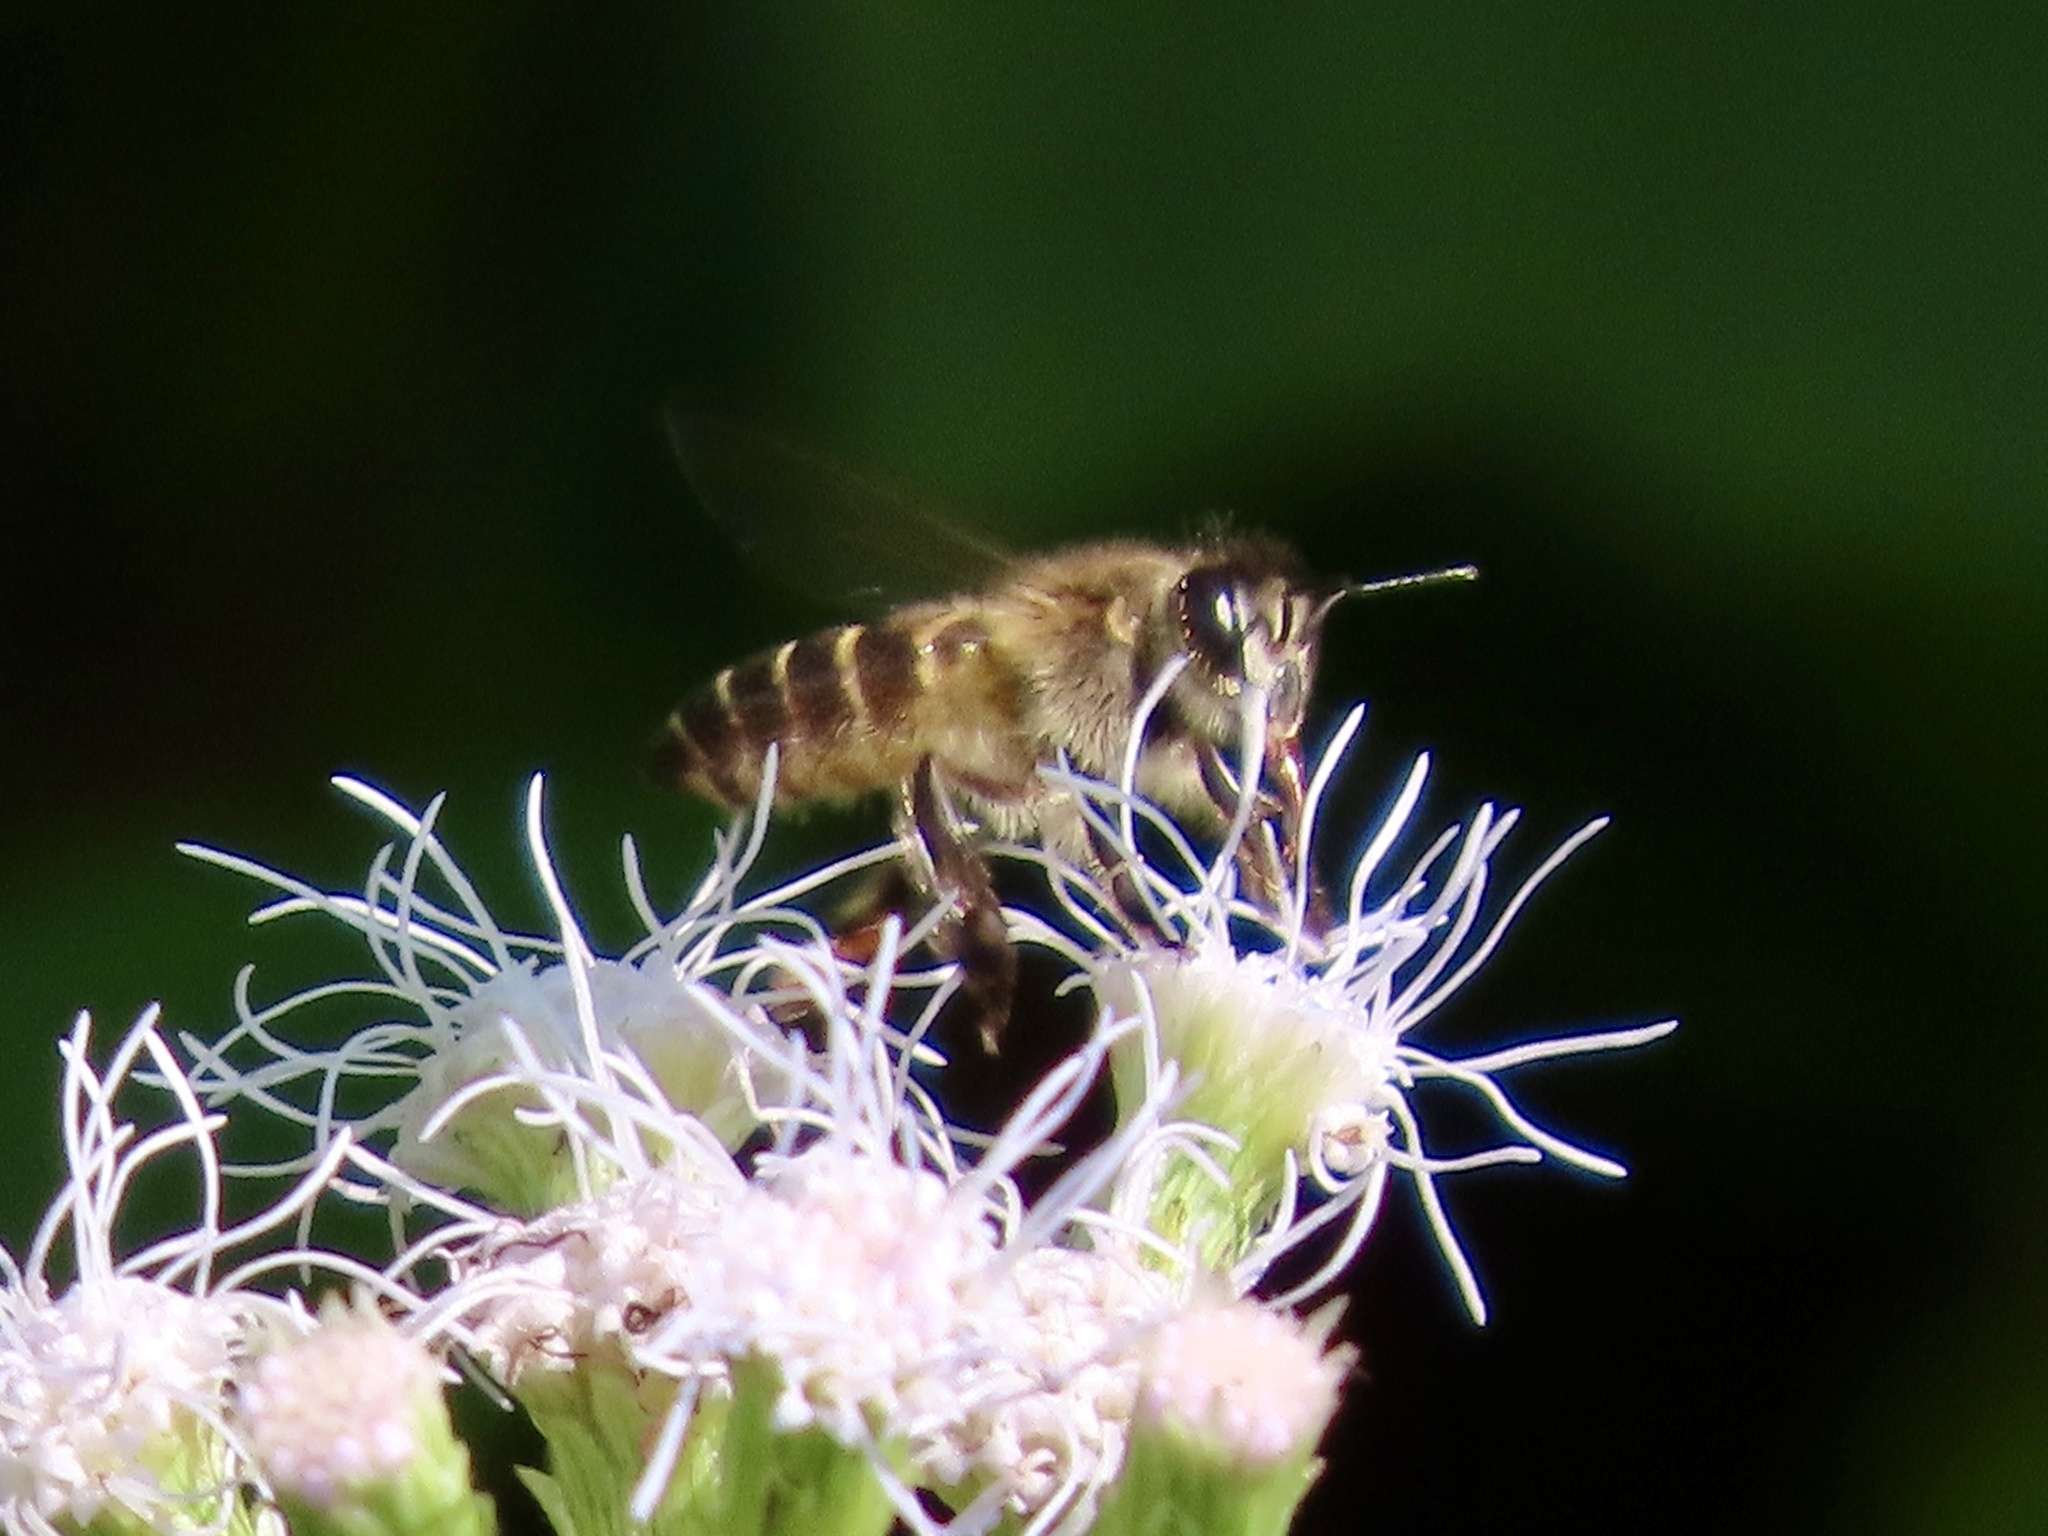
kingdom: Animalia
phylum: Arthropoda
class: Insecta
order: Hymenoptera
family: Apidae
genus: Apis
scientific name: Apis cerana
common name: Honey bee
